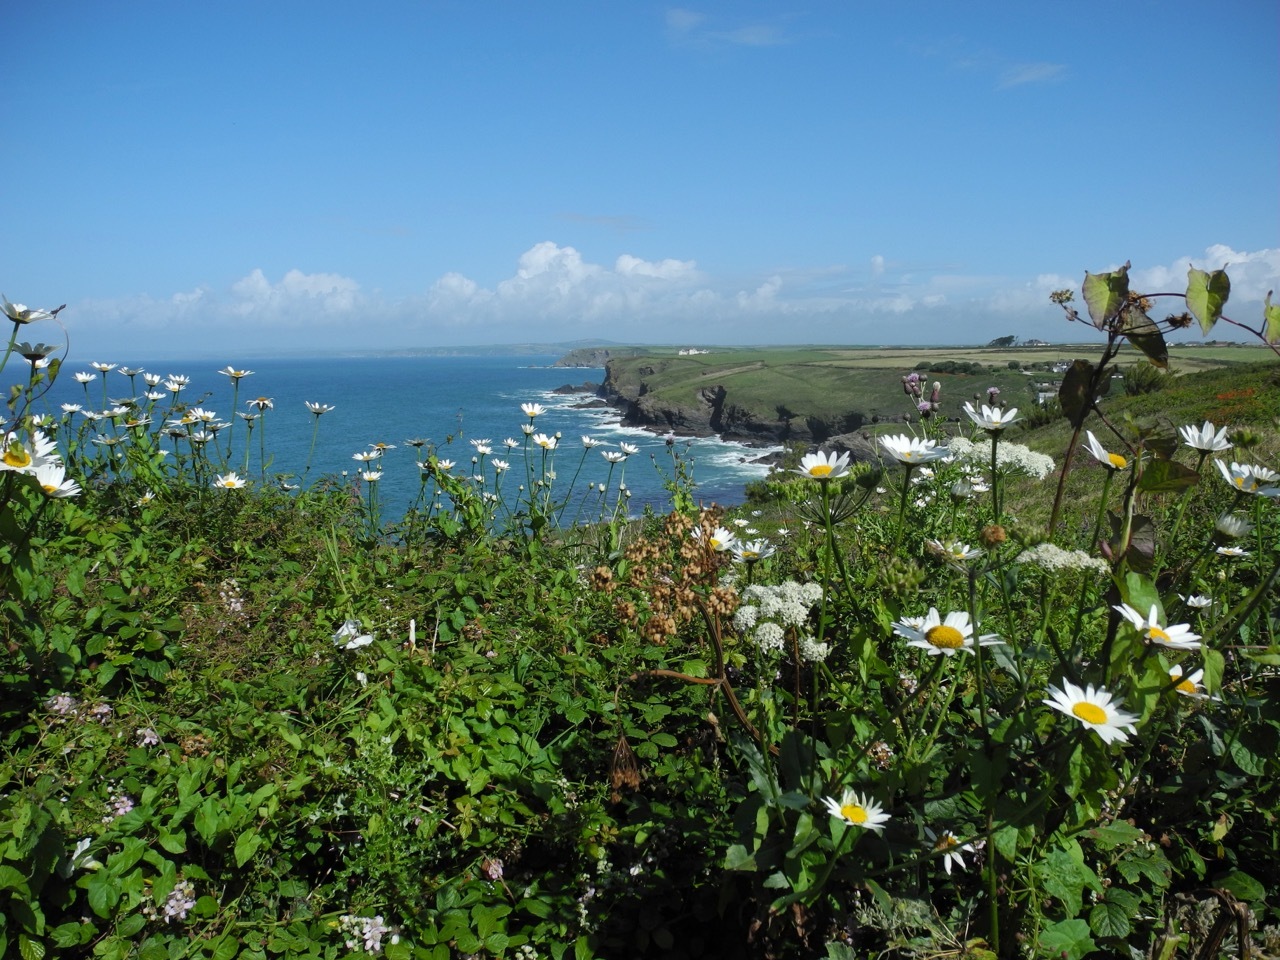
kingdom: Plantae
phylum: Tracheophyta
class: Magnoliopsida
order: Asterales
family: Asteraceae
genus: Leucanthemum
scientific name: Leucanthemum vulgare
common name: Oxeye daisy
